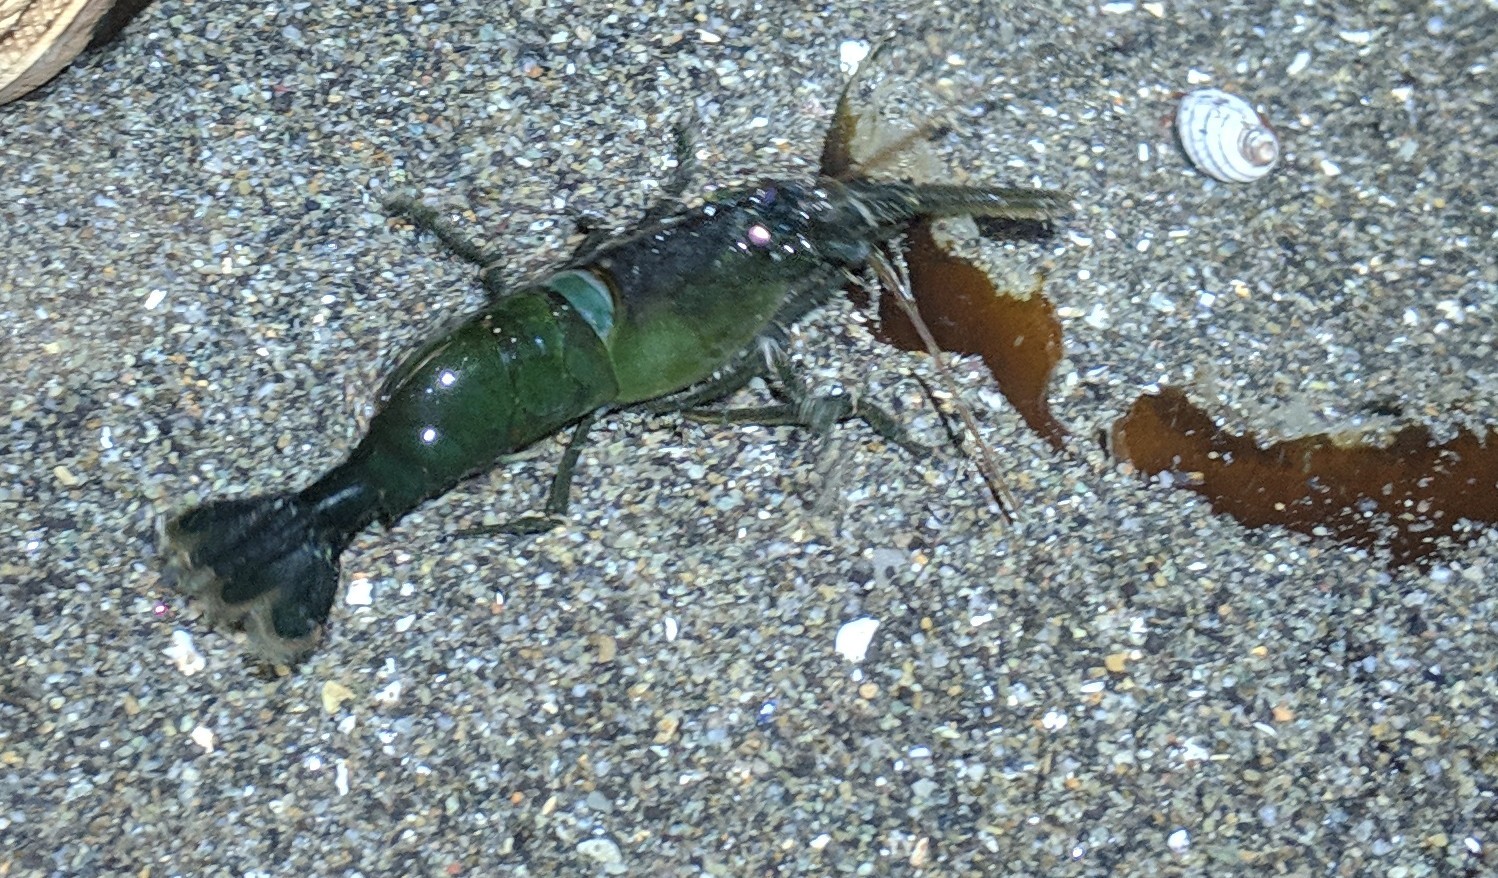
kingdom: Animalia
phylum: Arthropoda
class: Malacostraca
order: Decapoda
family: Thoridae
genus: Heptacarpus
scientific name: Heptacarpus brevirostris
